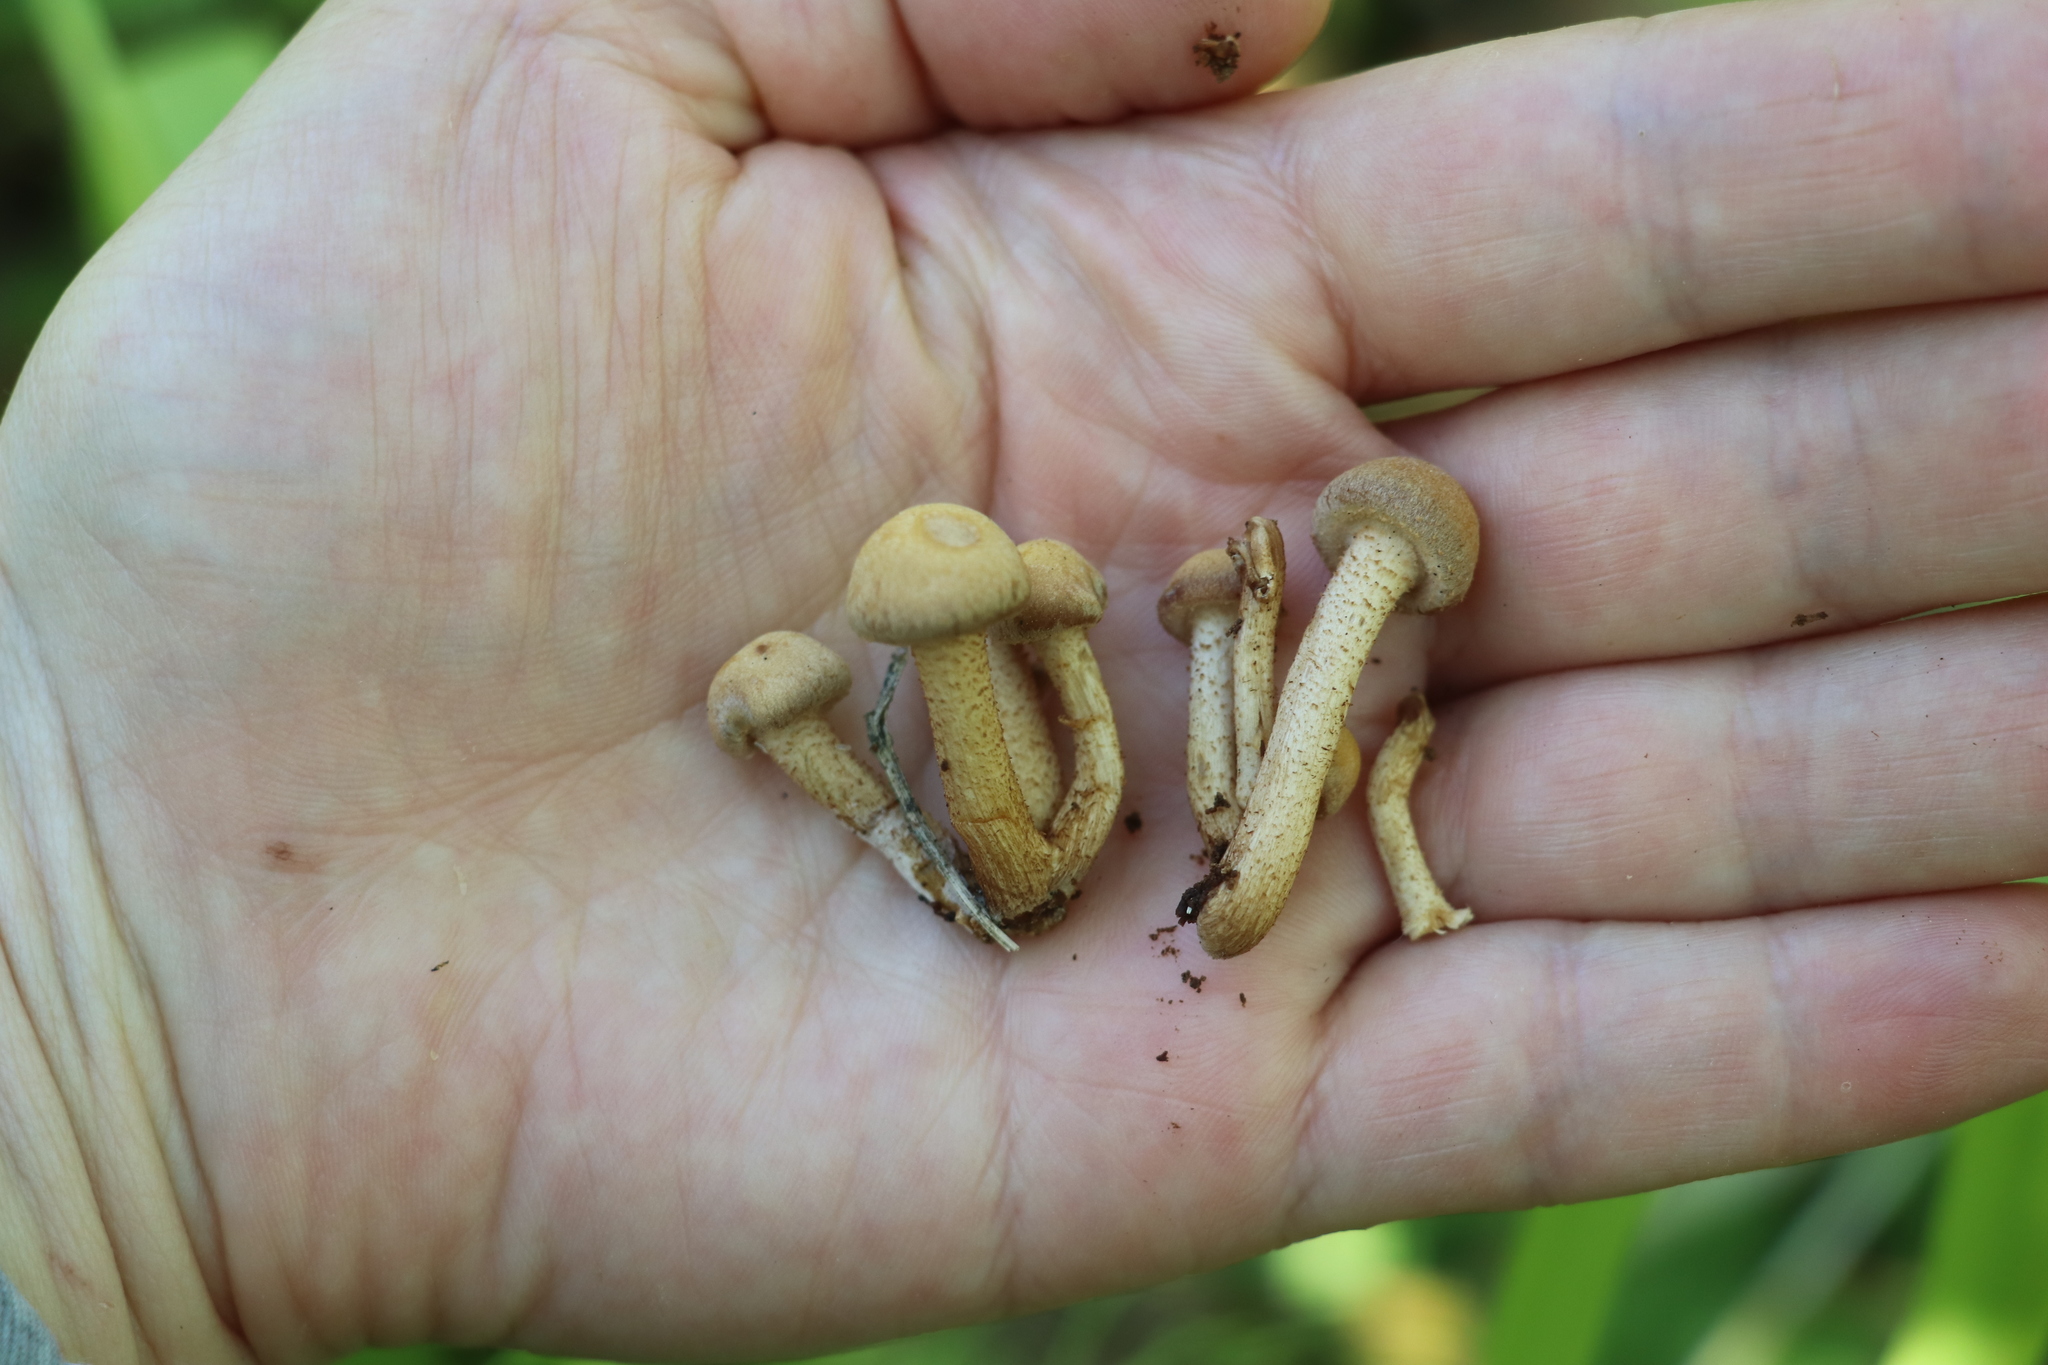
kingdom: Fungi
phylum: Basidiomycota
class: Agaricomycetes
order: Agaricales
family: Strophariaceae
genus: Kuehneromyces
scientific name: Kuehneromyces mutabilis
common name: Sheathed woodtuft
